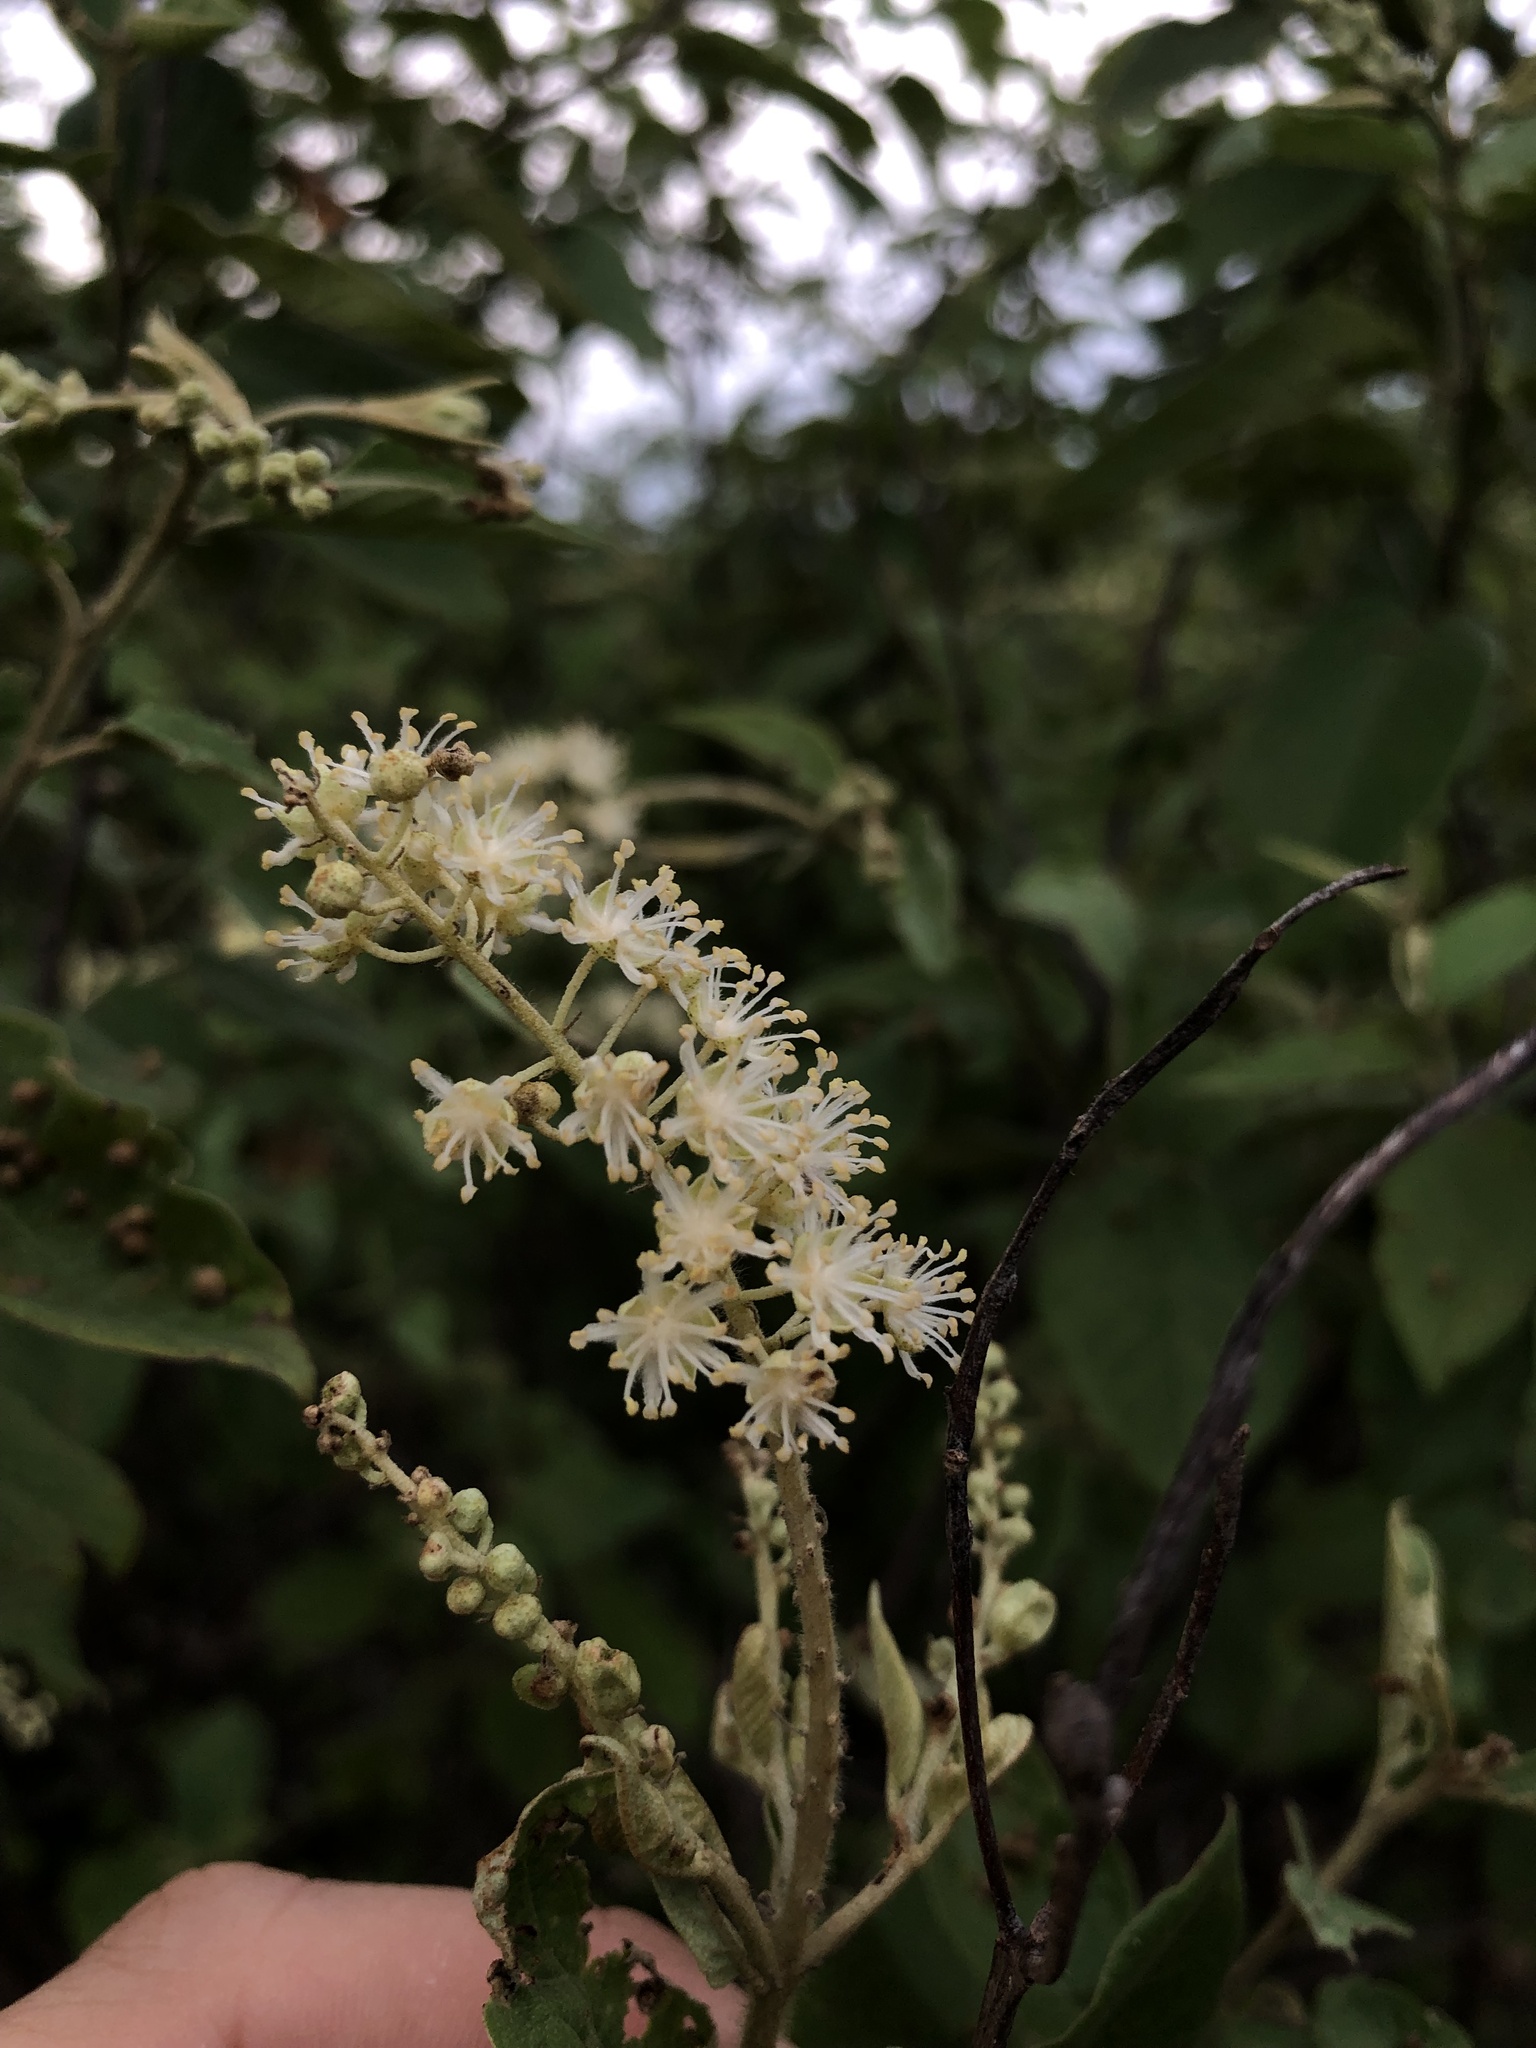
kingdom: Plantae
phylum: Tracheophyta
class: Magnoliopsida
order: Malpighiales
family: Euphorbiaceae
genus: Croton
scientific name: Croton blanchetianus
